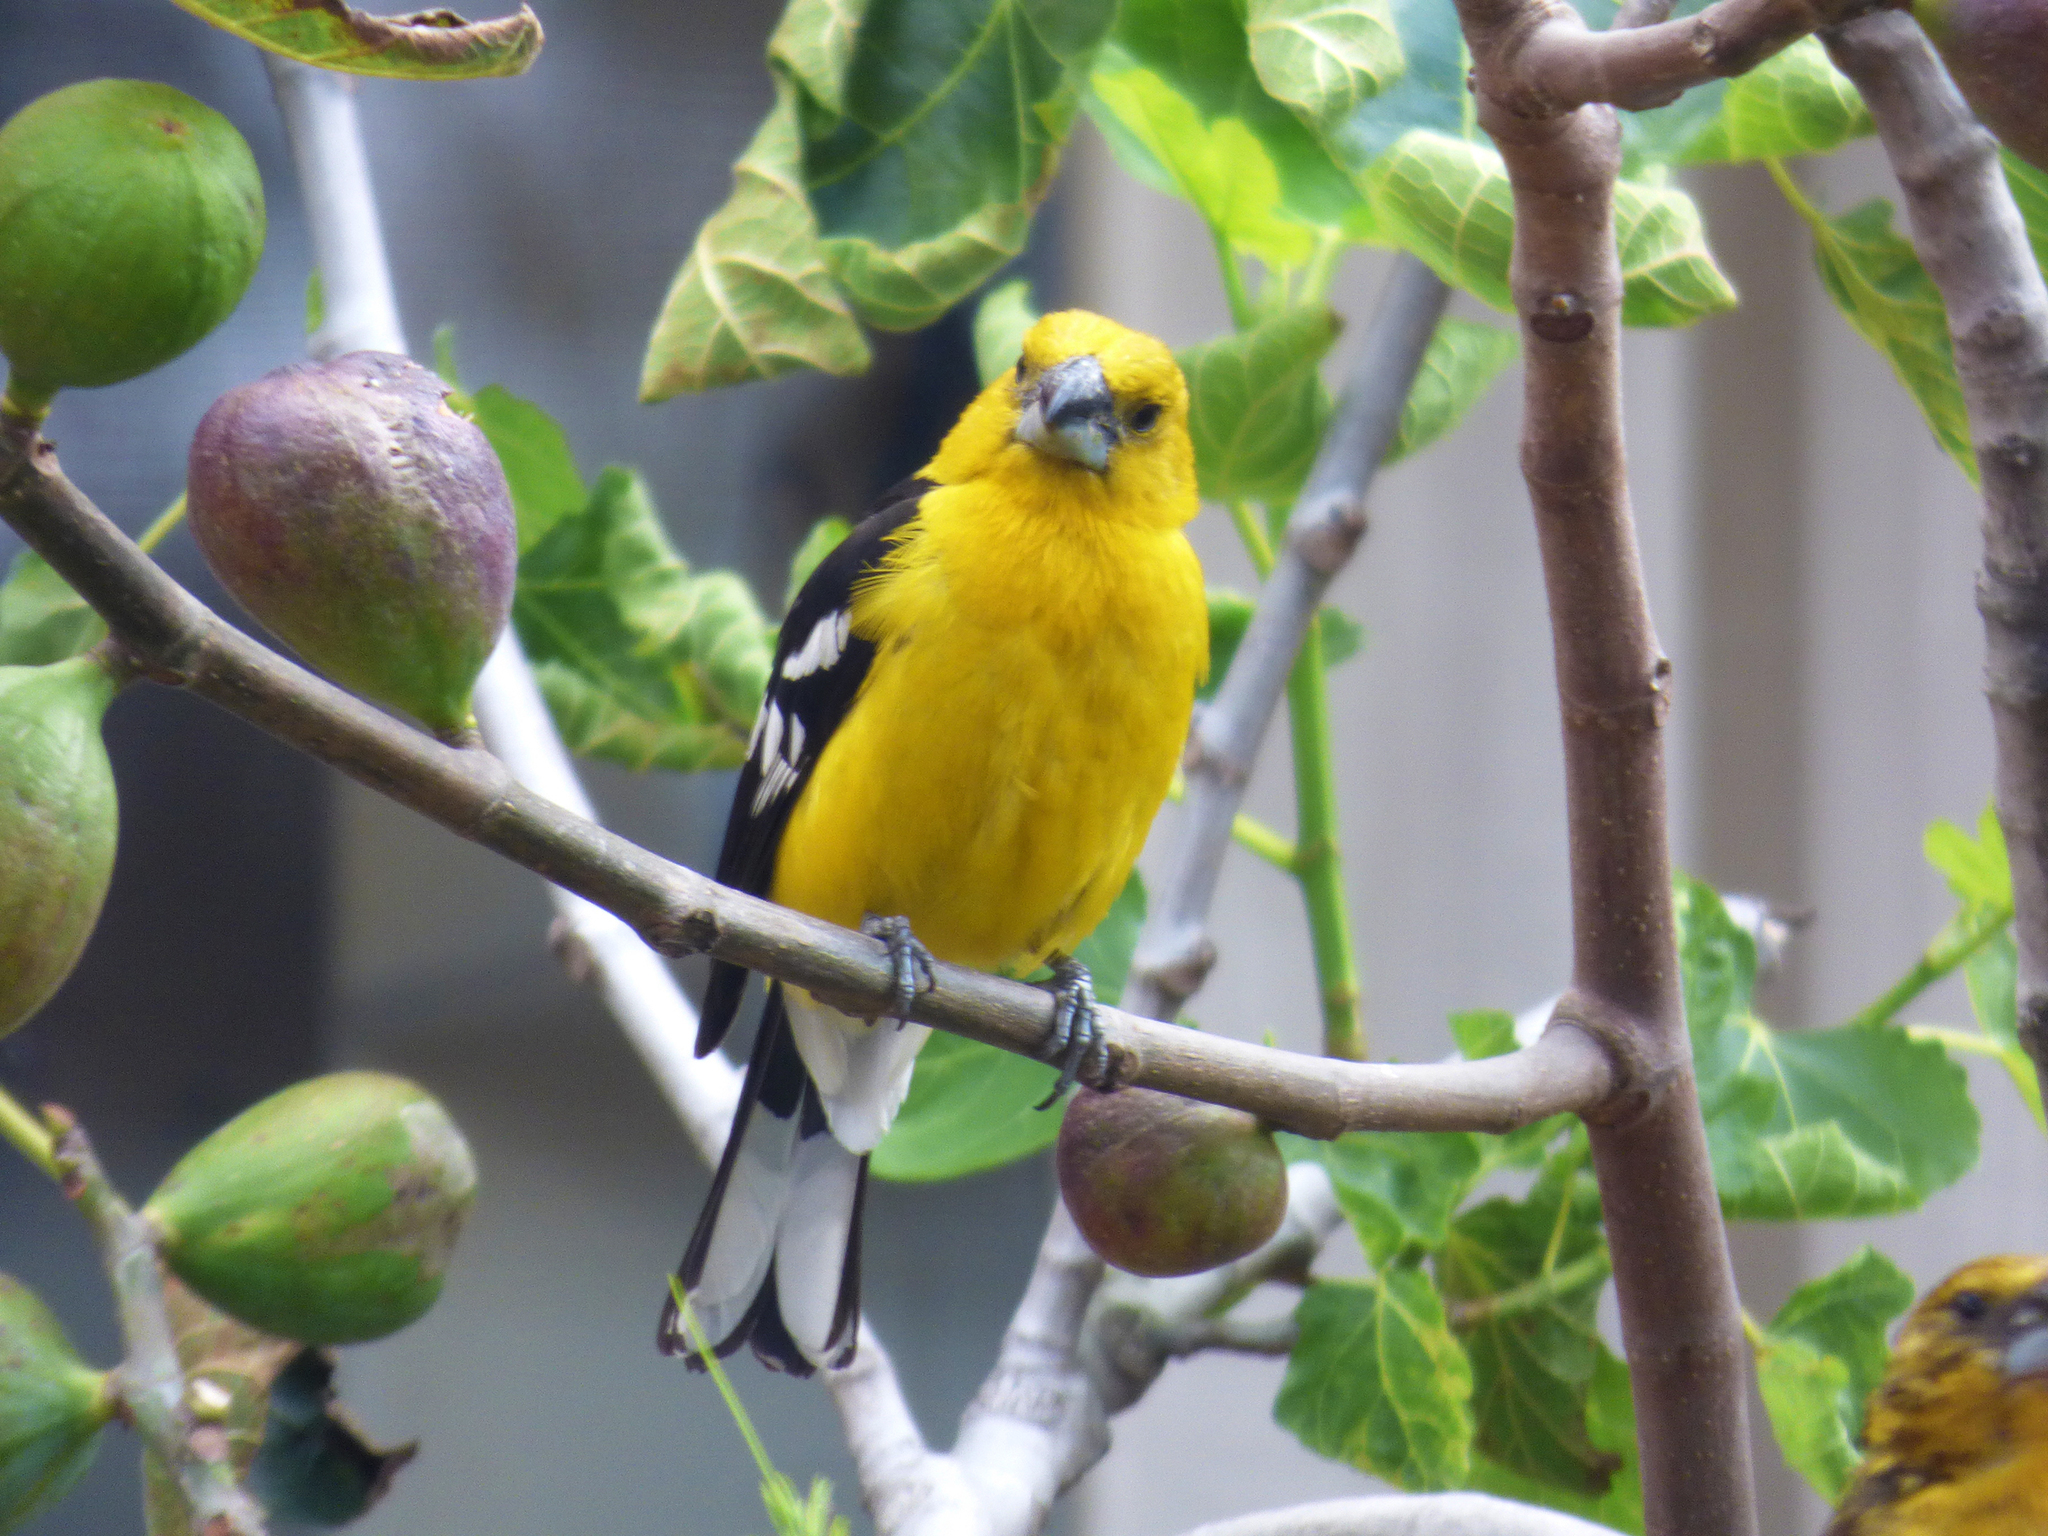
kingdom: Animalia
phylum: Chordata
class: Aves
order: Passeriformes
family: Cardinalidae
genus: Pheucticus
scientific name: Pheucticus chrysogaster
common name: Golden grosbeak
